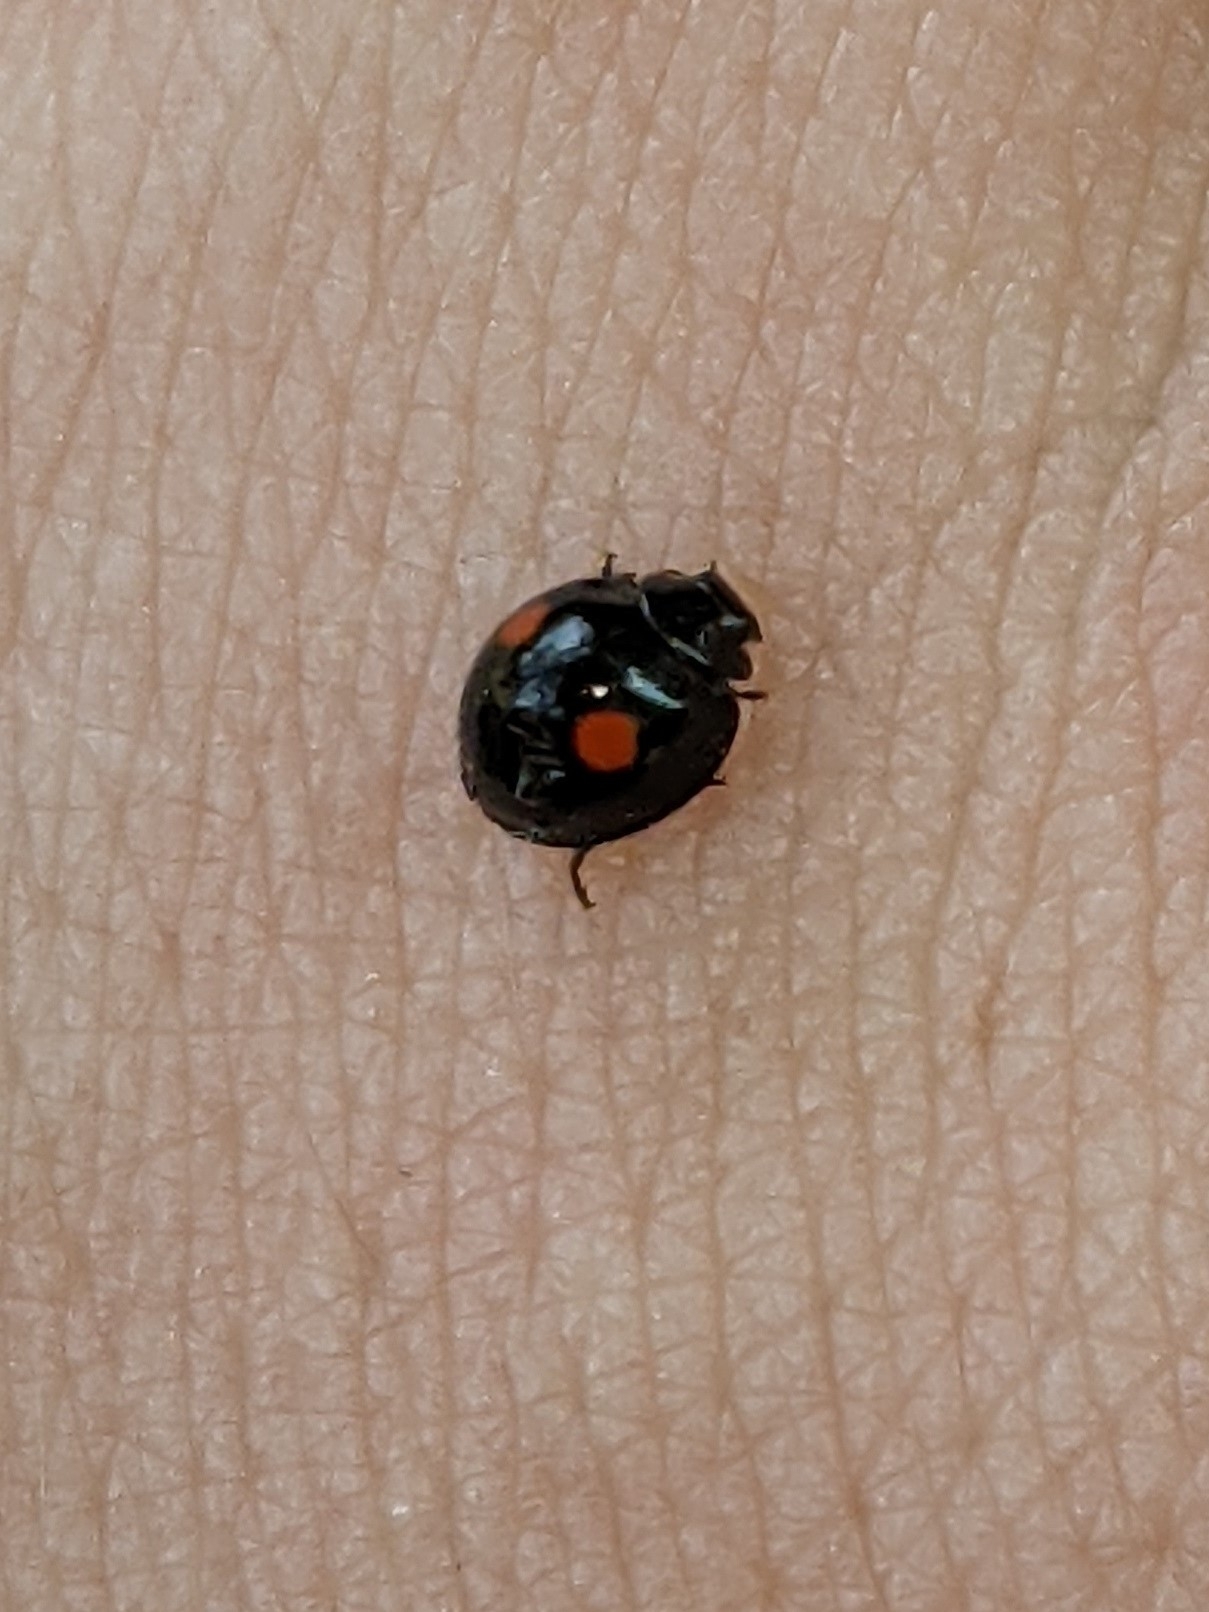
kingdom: Animalia
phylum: Arthropoda
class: Insecta
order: Coleoptera
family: Coccinellidae
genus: Chilocorus
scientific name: Chilocorus stigma
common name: Twicestabbed lady beetle
